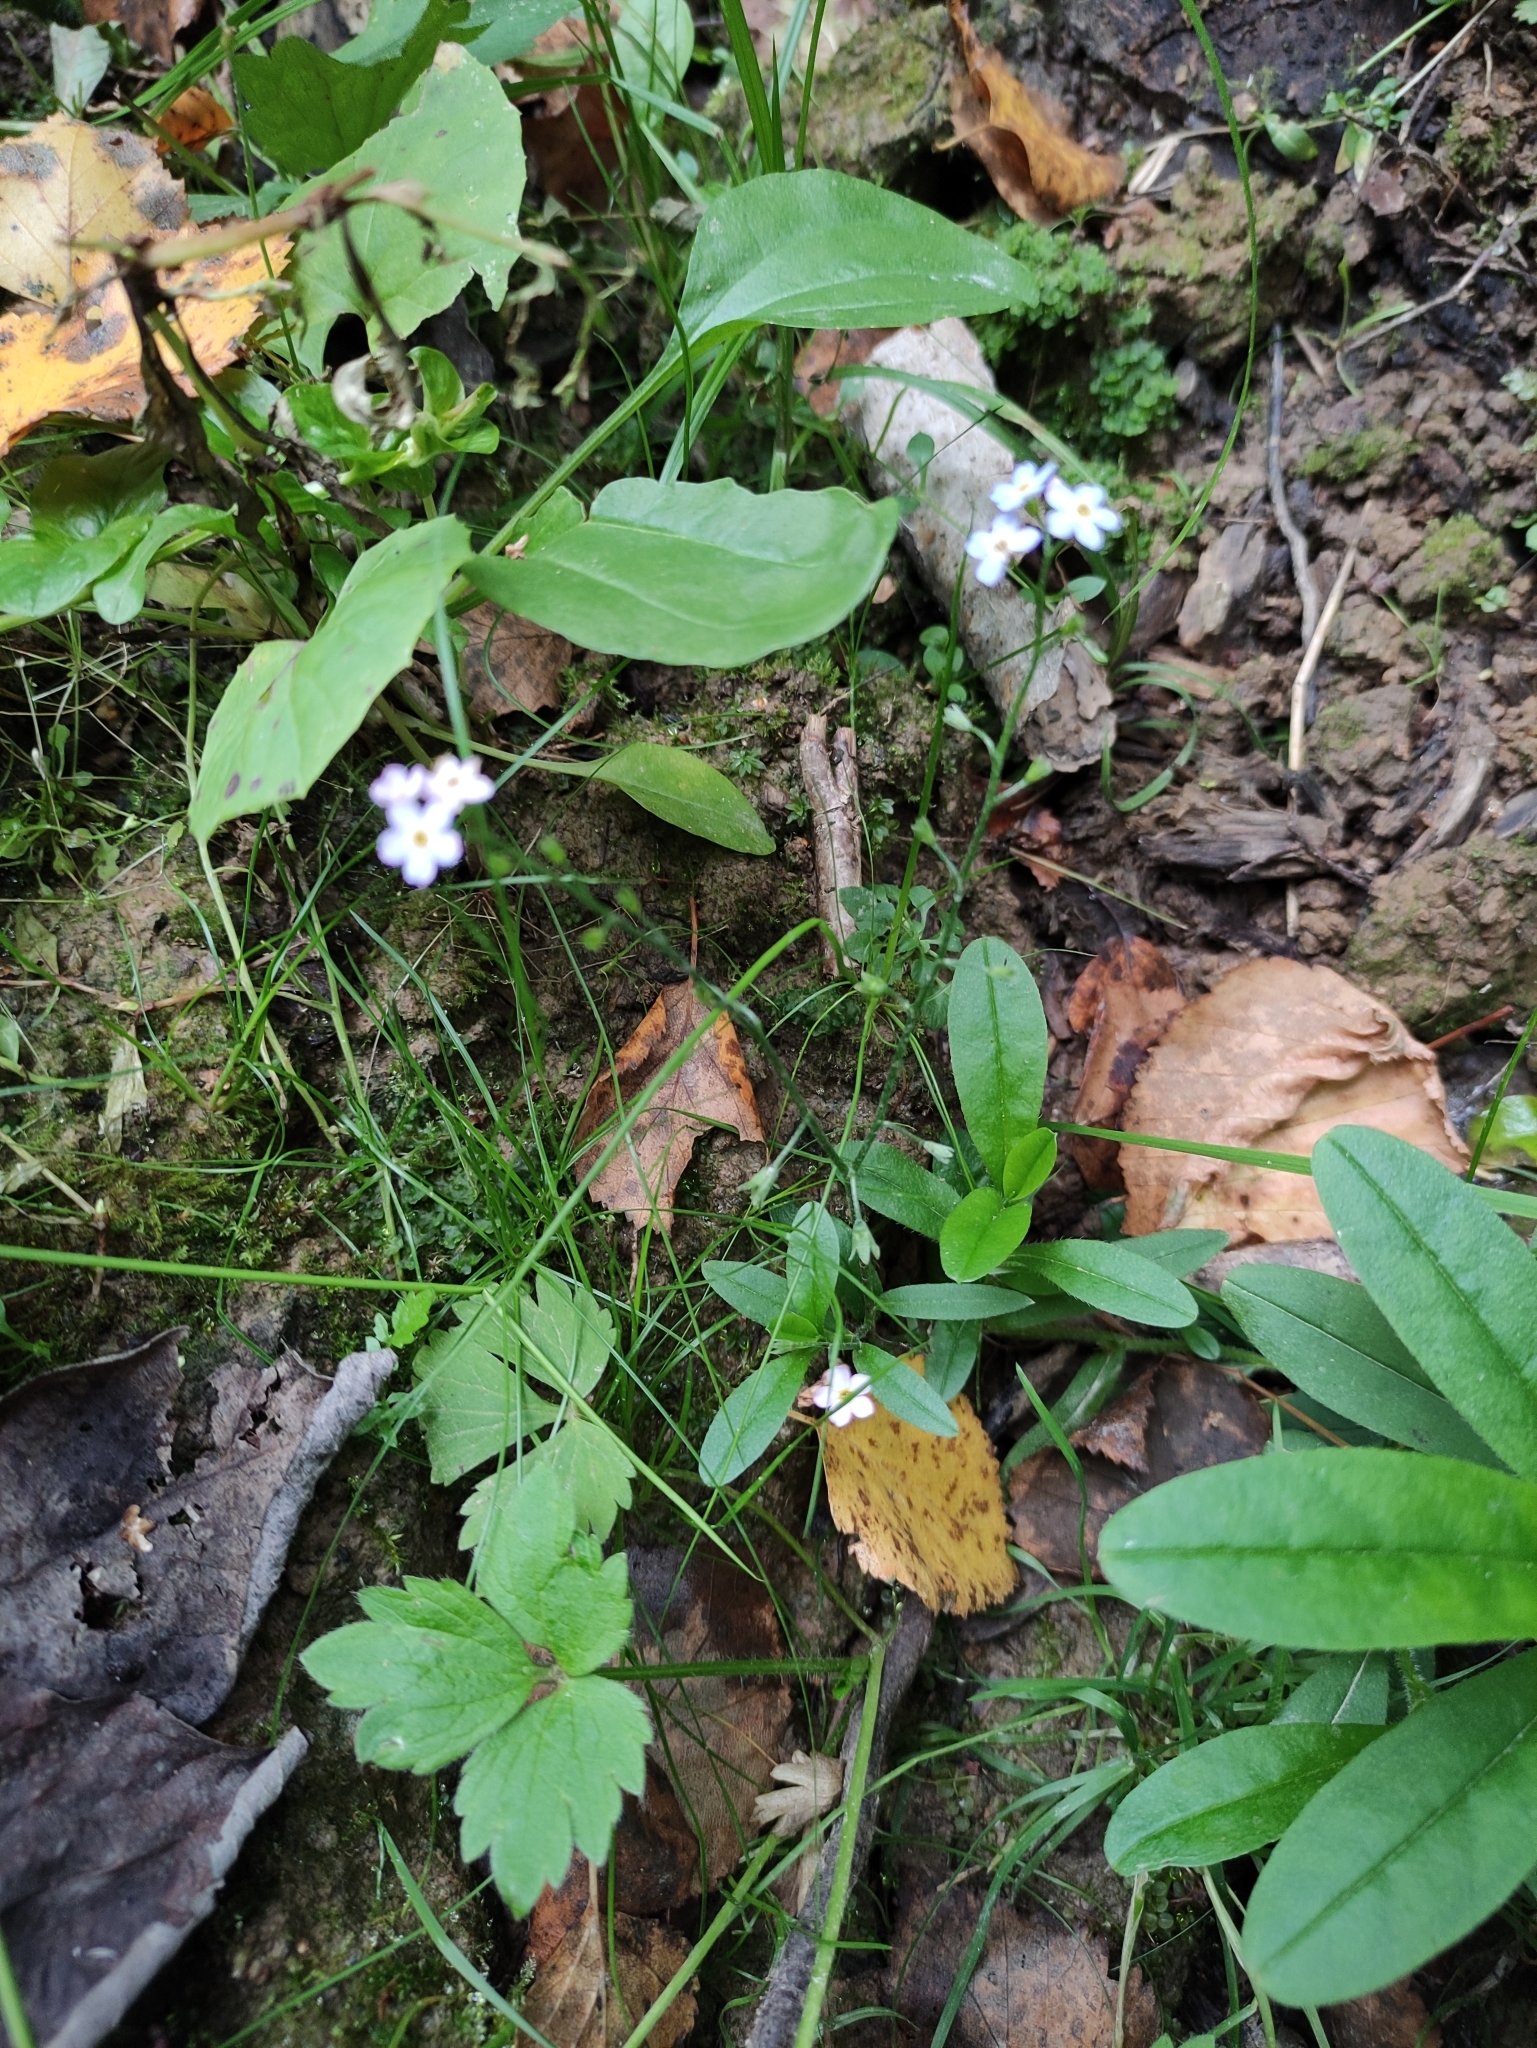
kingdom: Plantae
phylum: Tracheophyta
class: Magnoliopsida
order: Boraginales
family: Boraginaceae
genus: Myosotis
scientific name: Myosotis scorpioides
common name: Water forget-me-not
